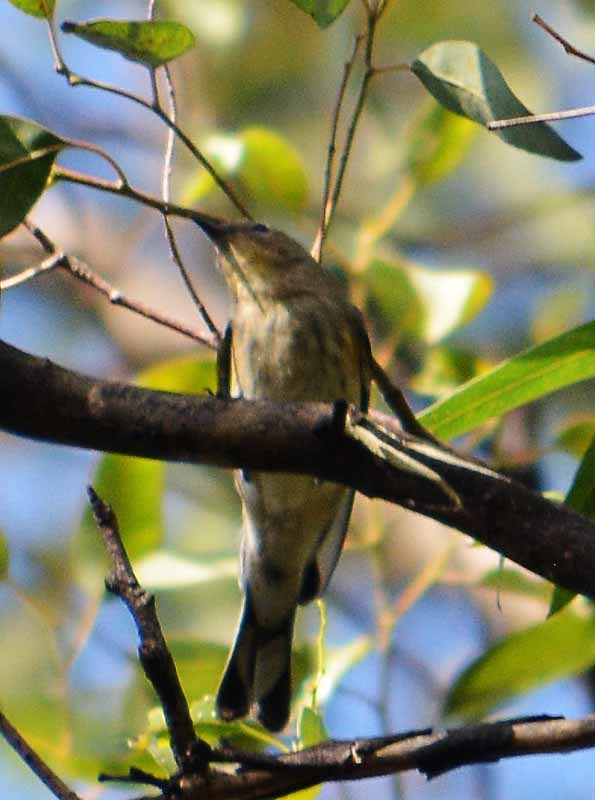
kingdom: Animalia
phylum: Chordata
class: Aves
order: Passeriformes
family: Parulidae
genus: Setophaga
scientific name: Setophaga coronata
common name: Myrtle warbler
